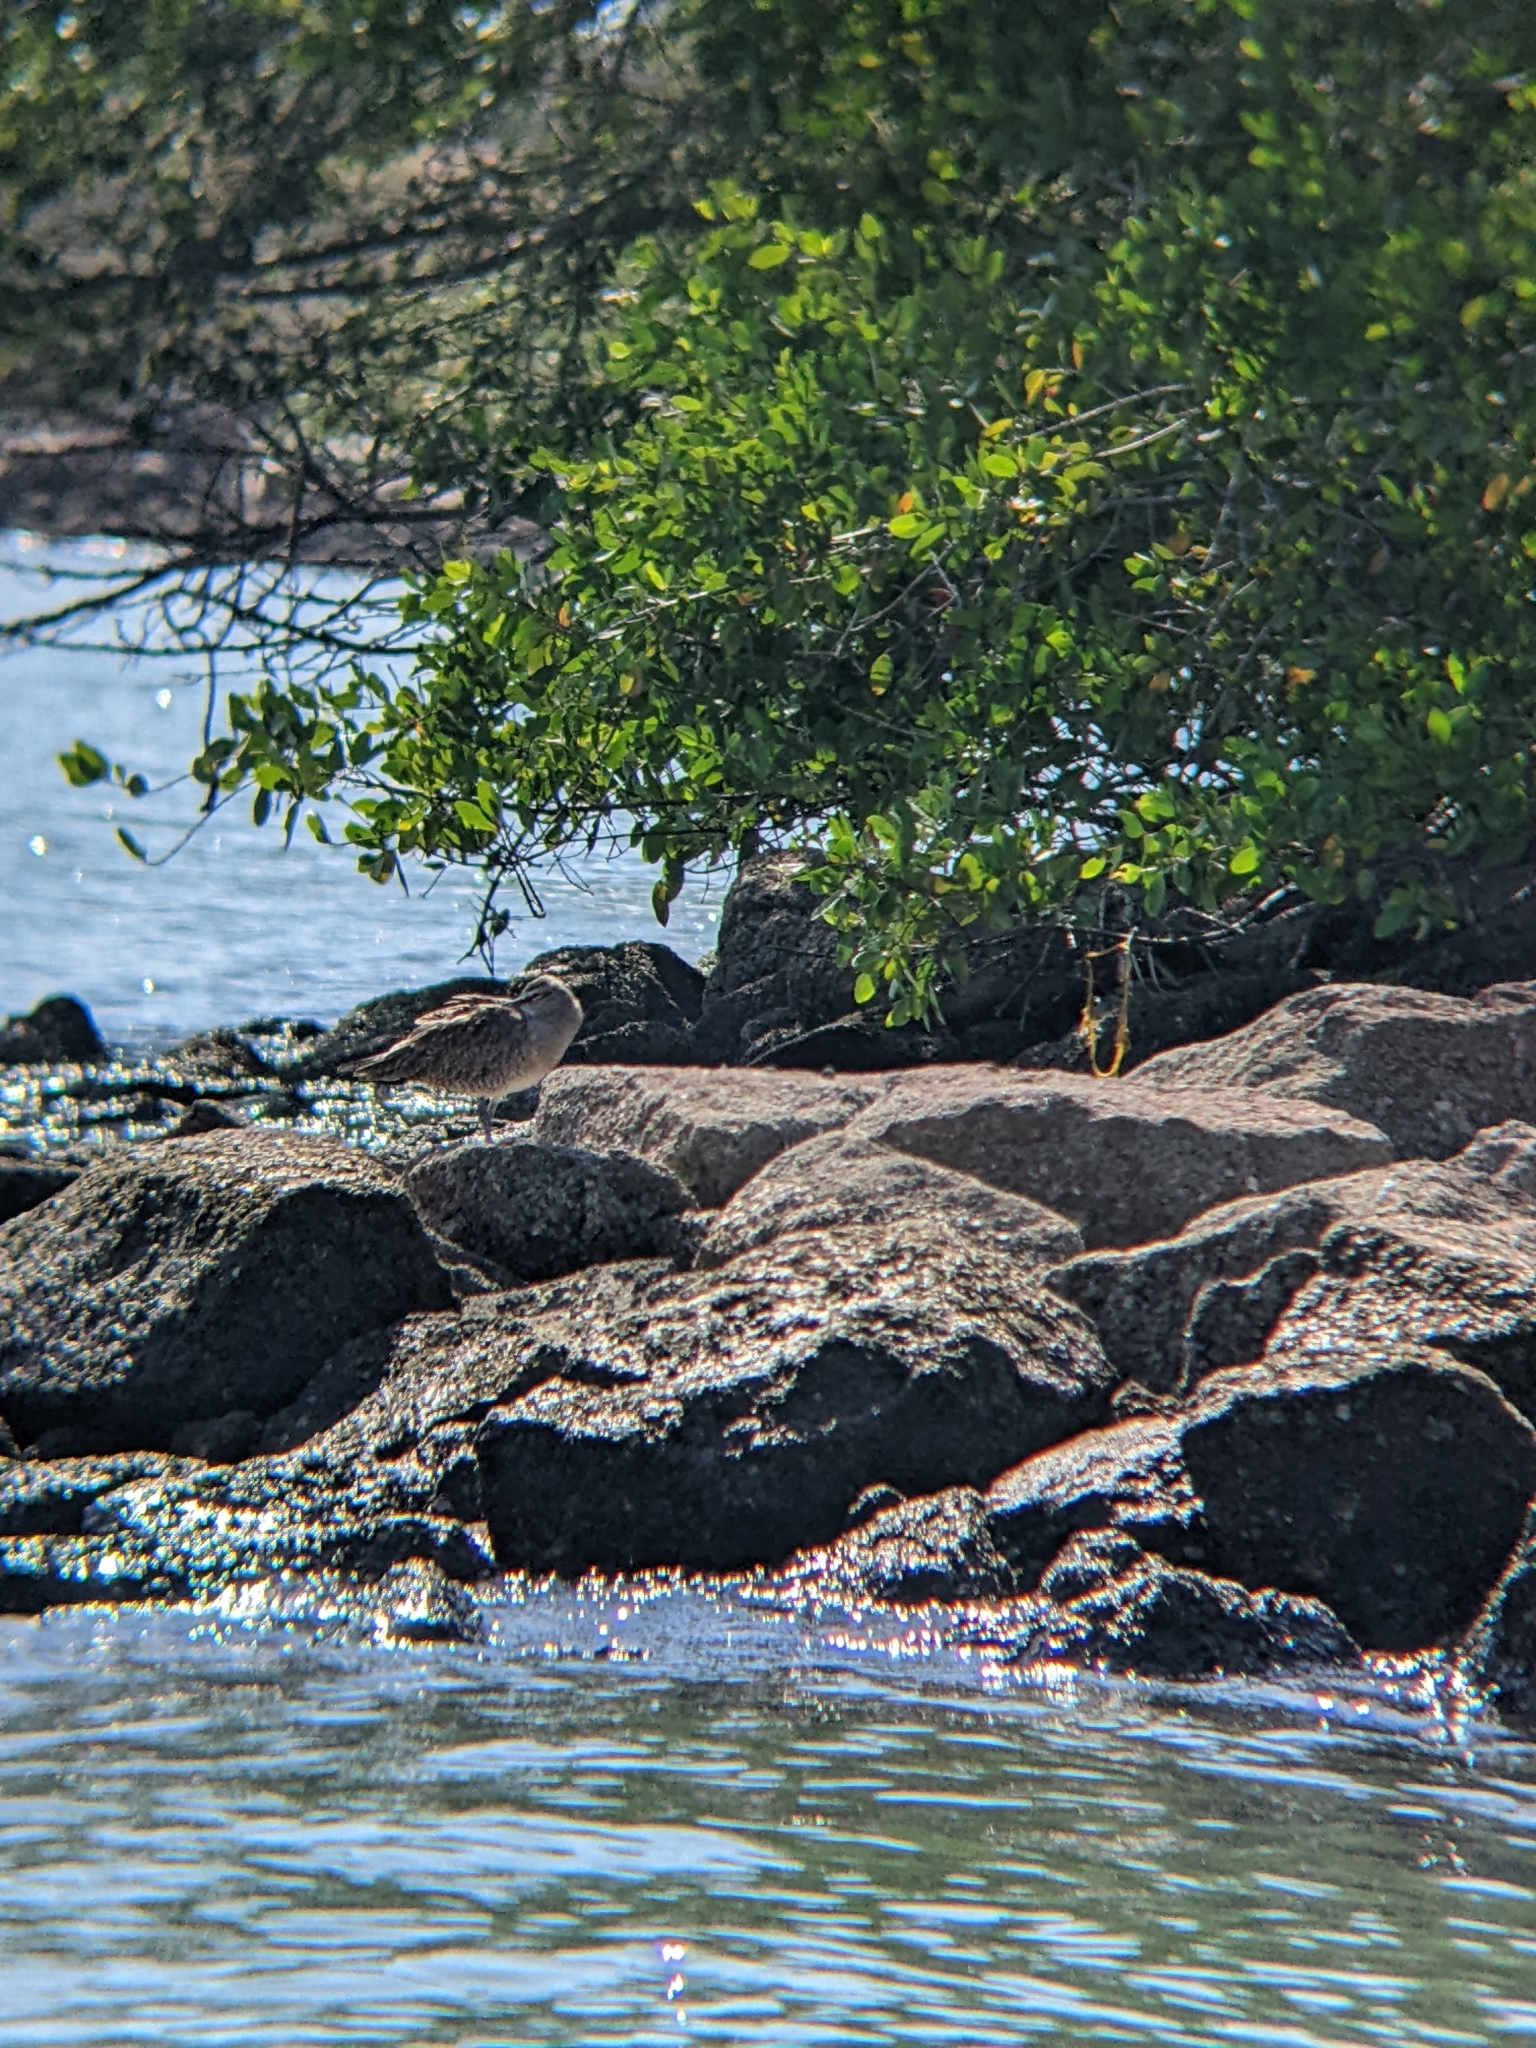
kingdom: Animalia
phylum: Chordata
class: Aves
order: Charadriiformes
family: Scolopacidae
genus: Numenius
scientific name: Numenius hudsonicus
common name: Hudsonian whimbrel
